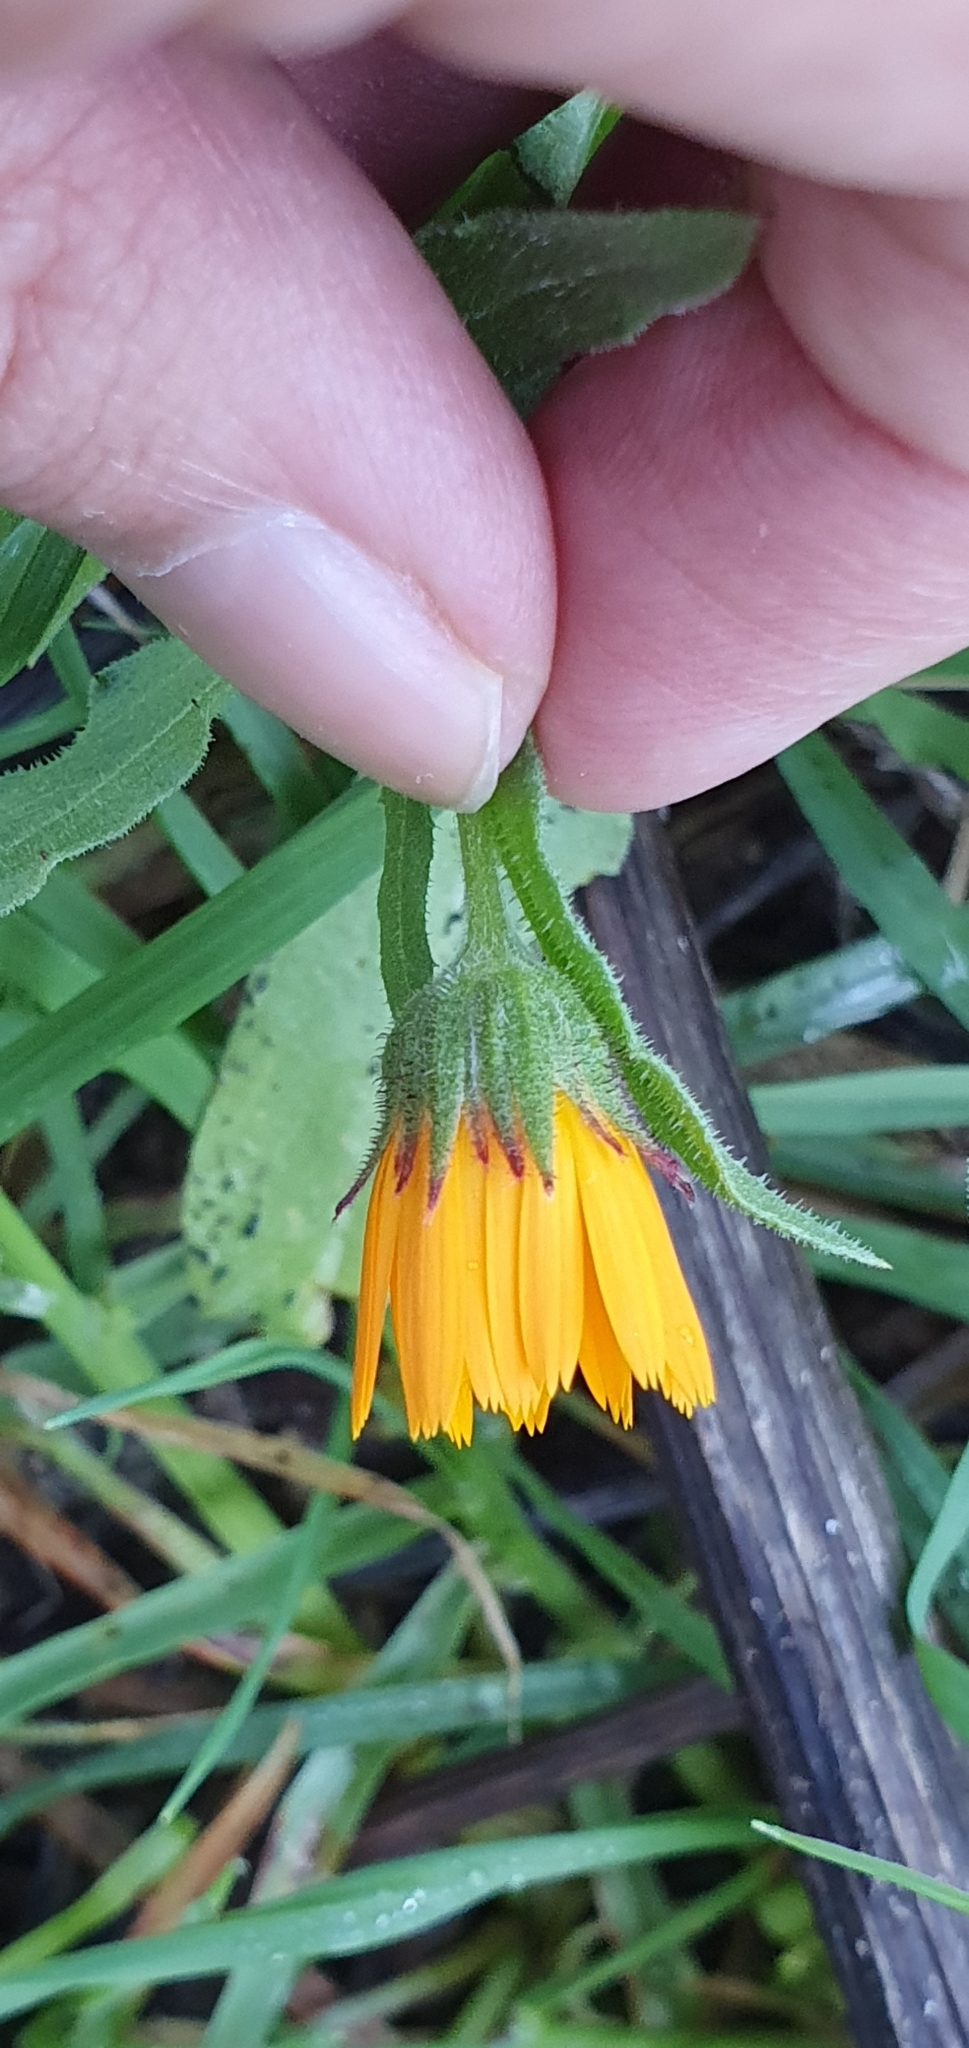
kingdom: Plantae
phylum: Tracheophyta
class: Magnoliopsida
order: Asterales
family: Asteraceae
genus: Calendula
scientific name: Calendula arvensis
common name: Field marigold
